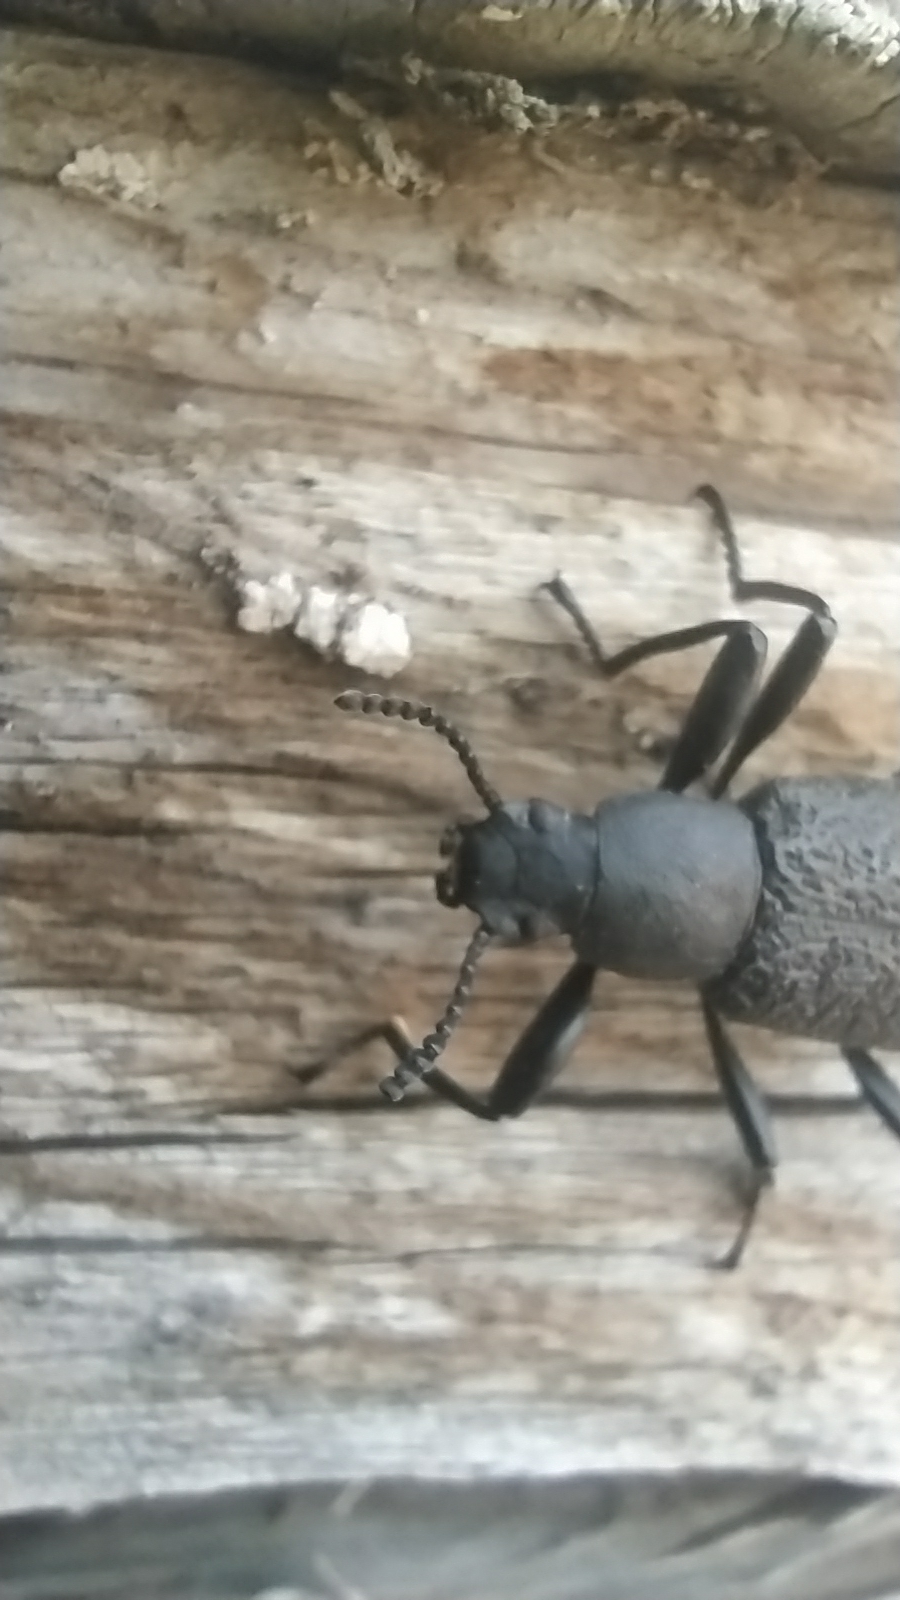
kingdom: Animalia
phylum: Arthropoda
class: Insecta
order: Coleoptera
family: Tenebrionidae
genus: Upis
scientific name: Upis ceramboides
